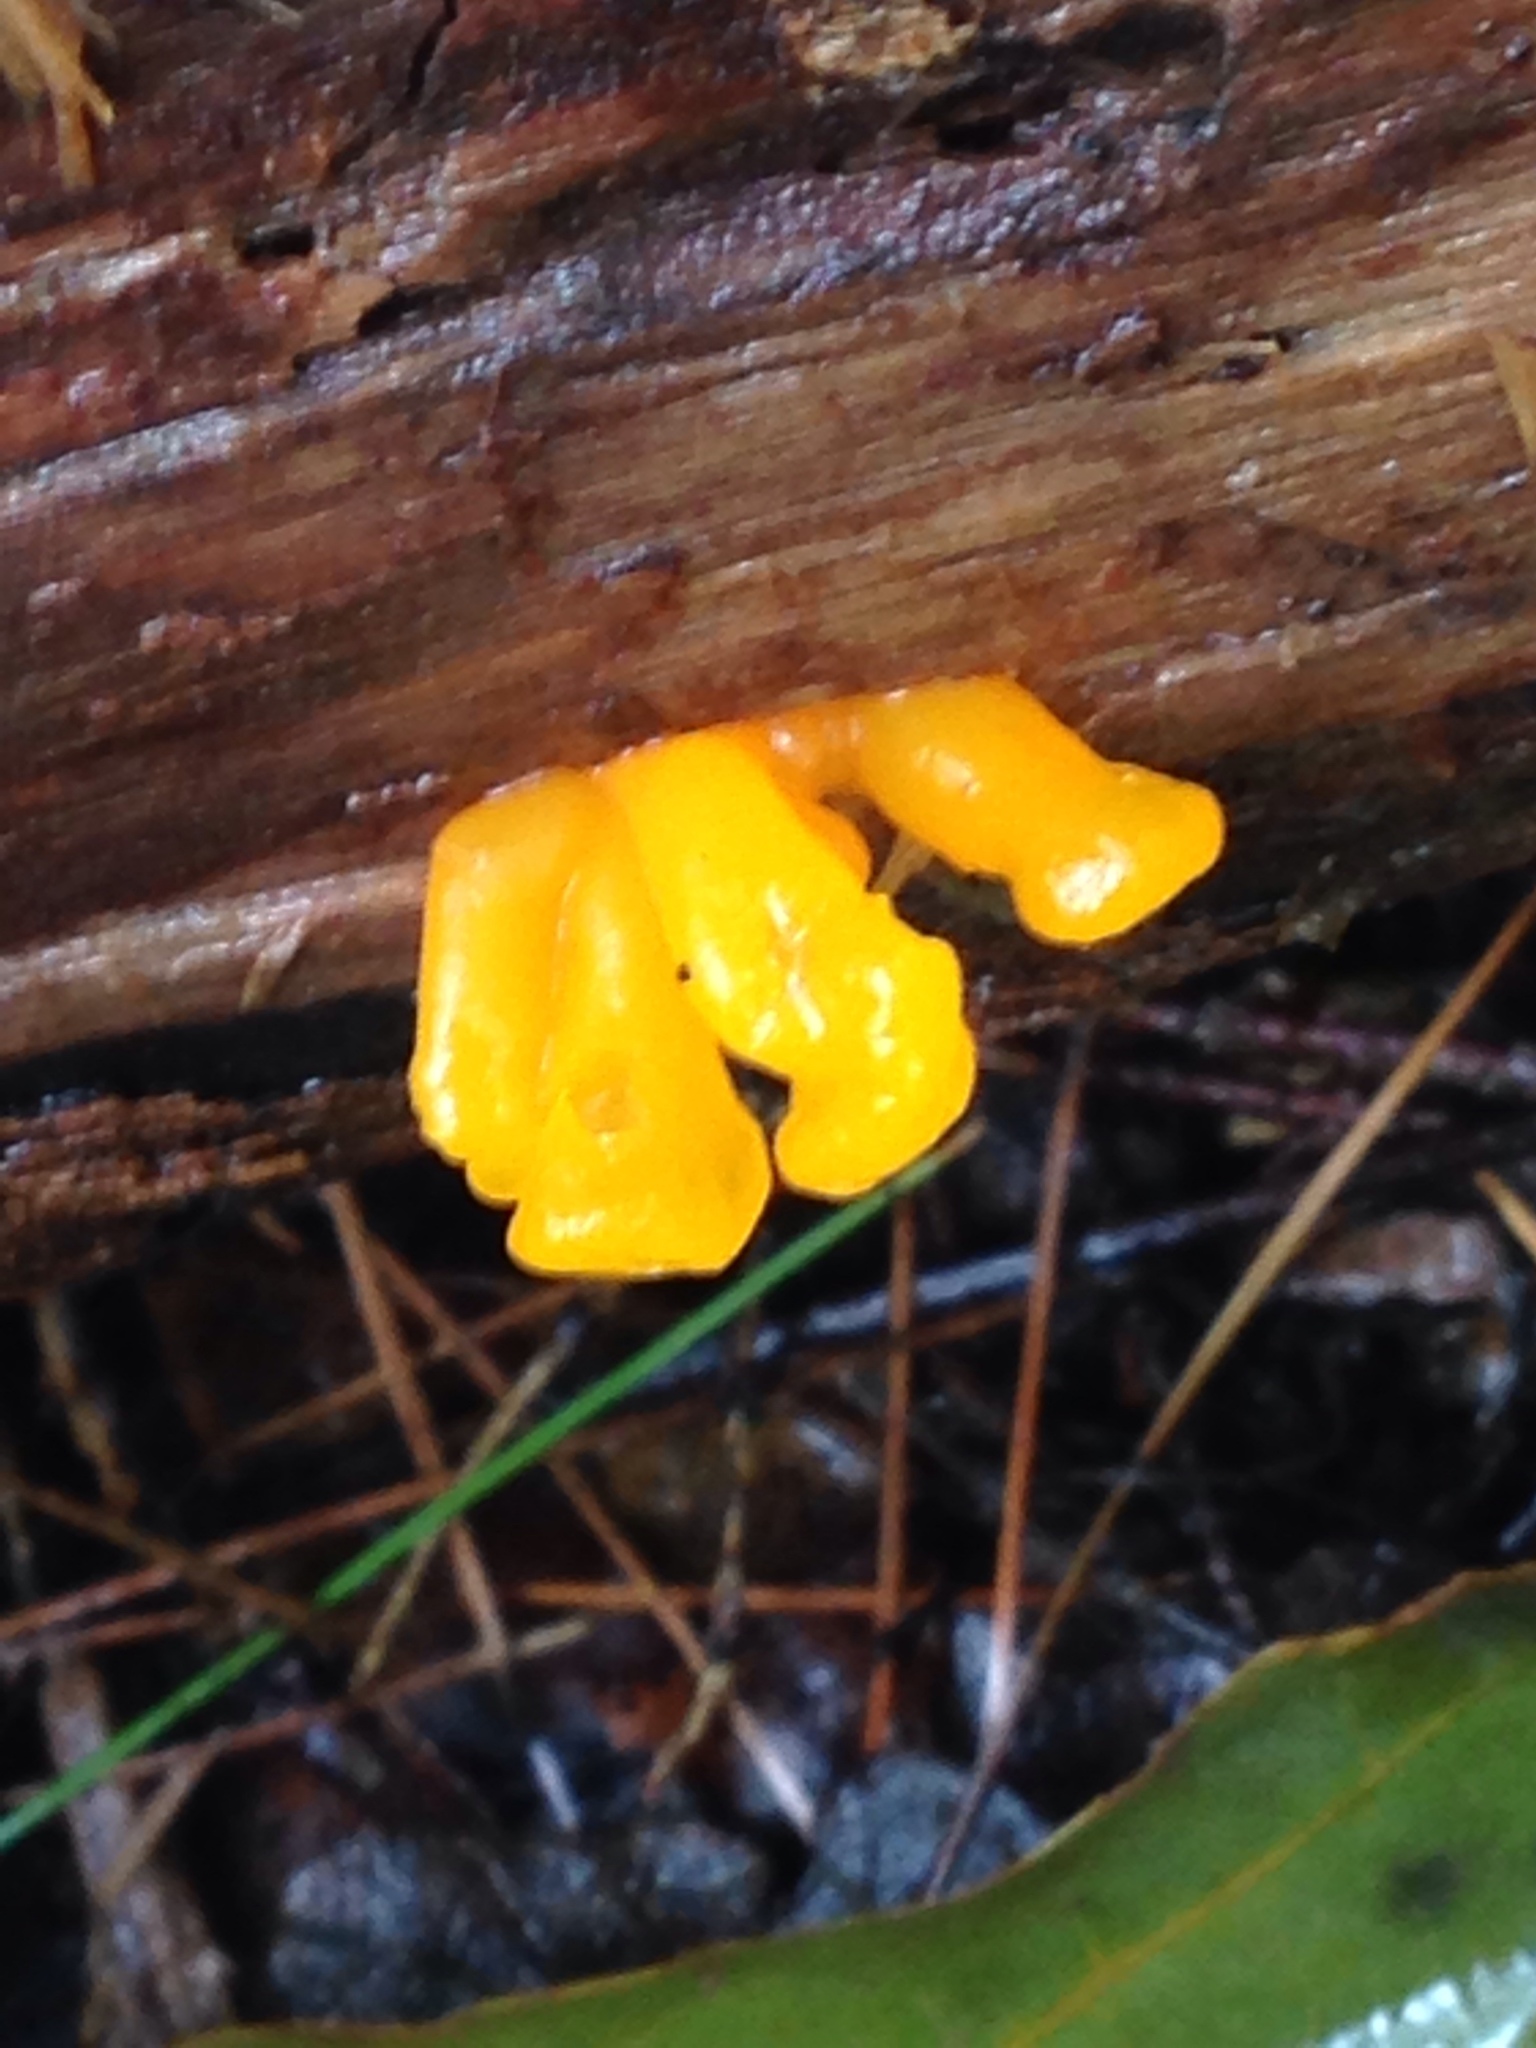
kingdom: Fungi
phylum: Basidiomycota
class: Tremellomycetes
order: Tremellales
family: Tremellaceae
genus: Tremella
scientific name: Tremella mesenterica
